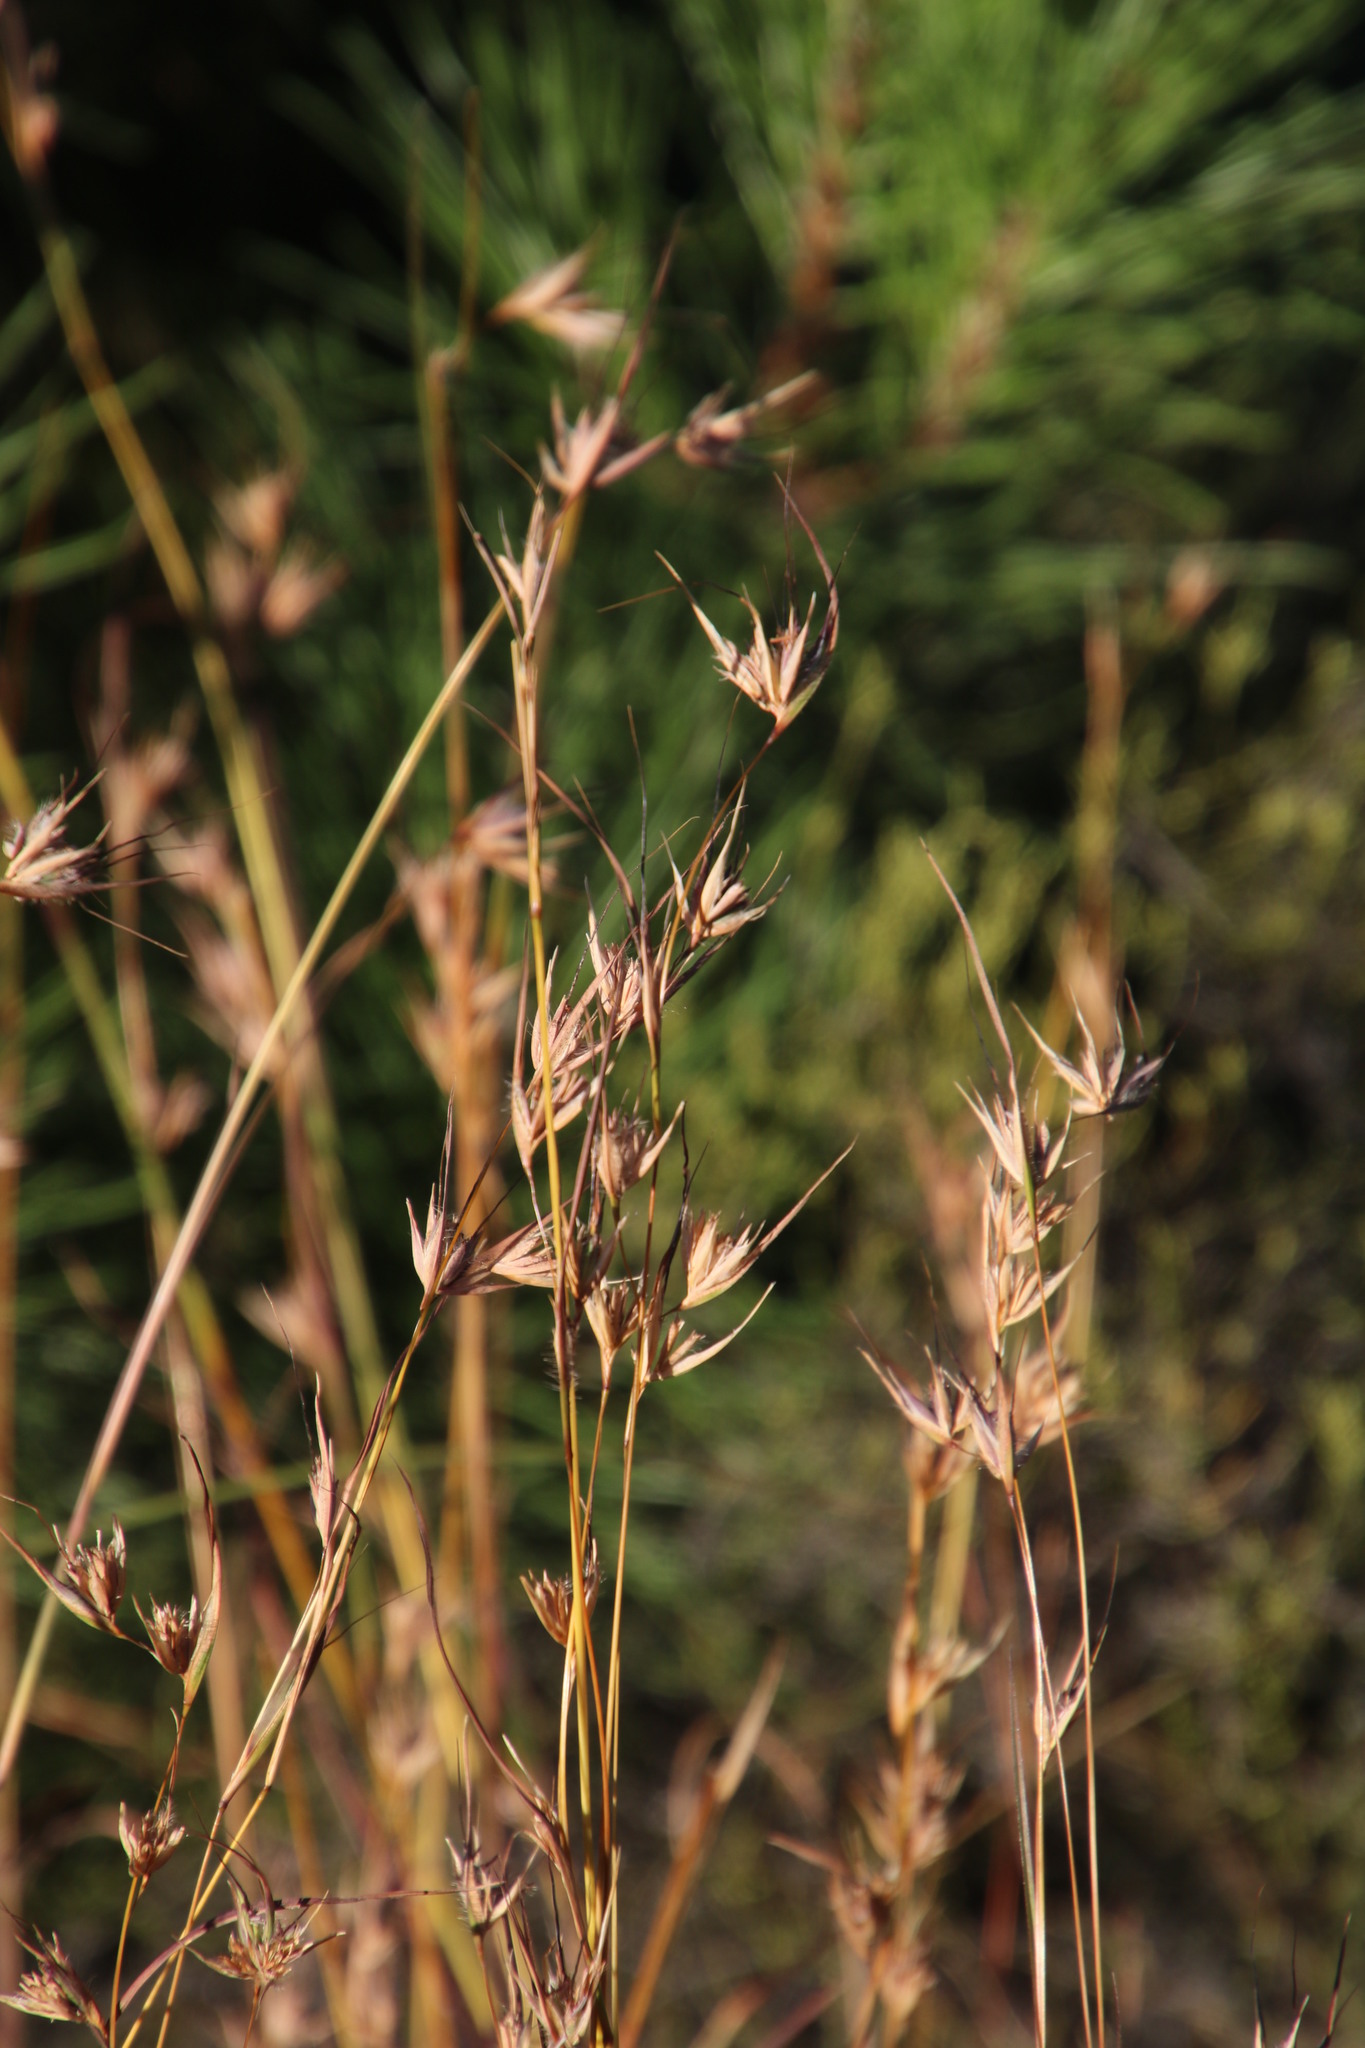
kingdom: Plantae
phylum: Tracheophyta
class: Liliopsida
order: Poales
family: Poaceae
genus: Themeda
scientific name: Themeda triandra
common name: Kangaroo grass
